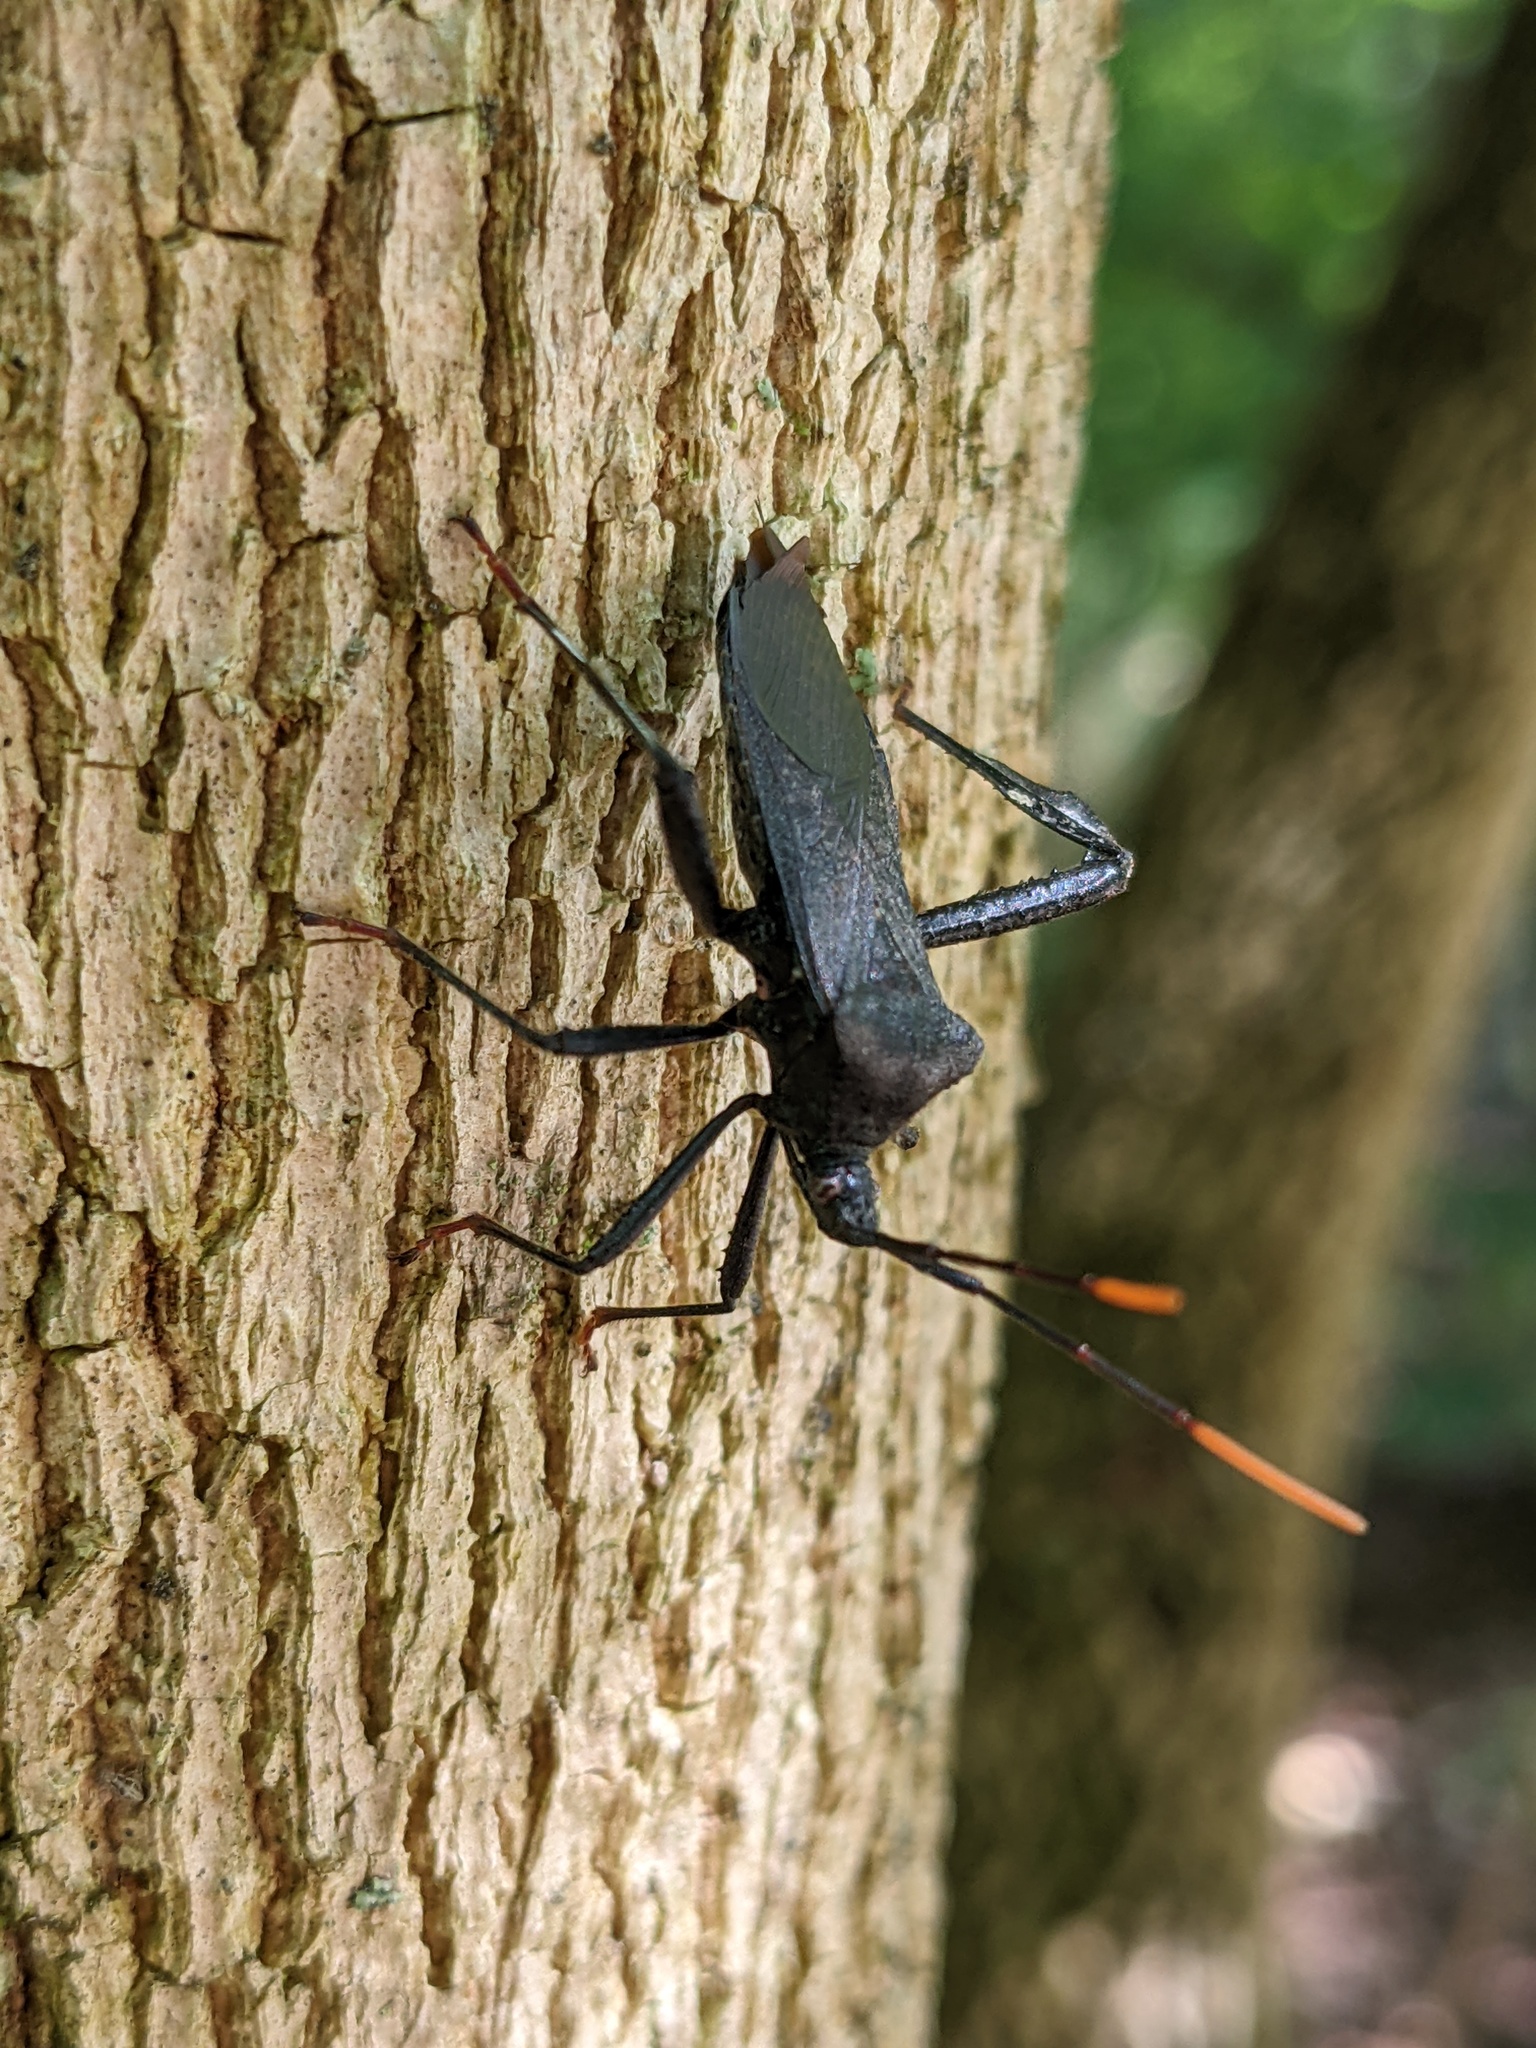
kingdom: Animalia
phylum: Arthropoda
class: Insecta
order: Hemiptera
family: Coreidae
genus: Acanthocephala
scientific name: Acanthocephala terminalis
